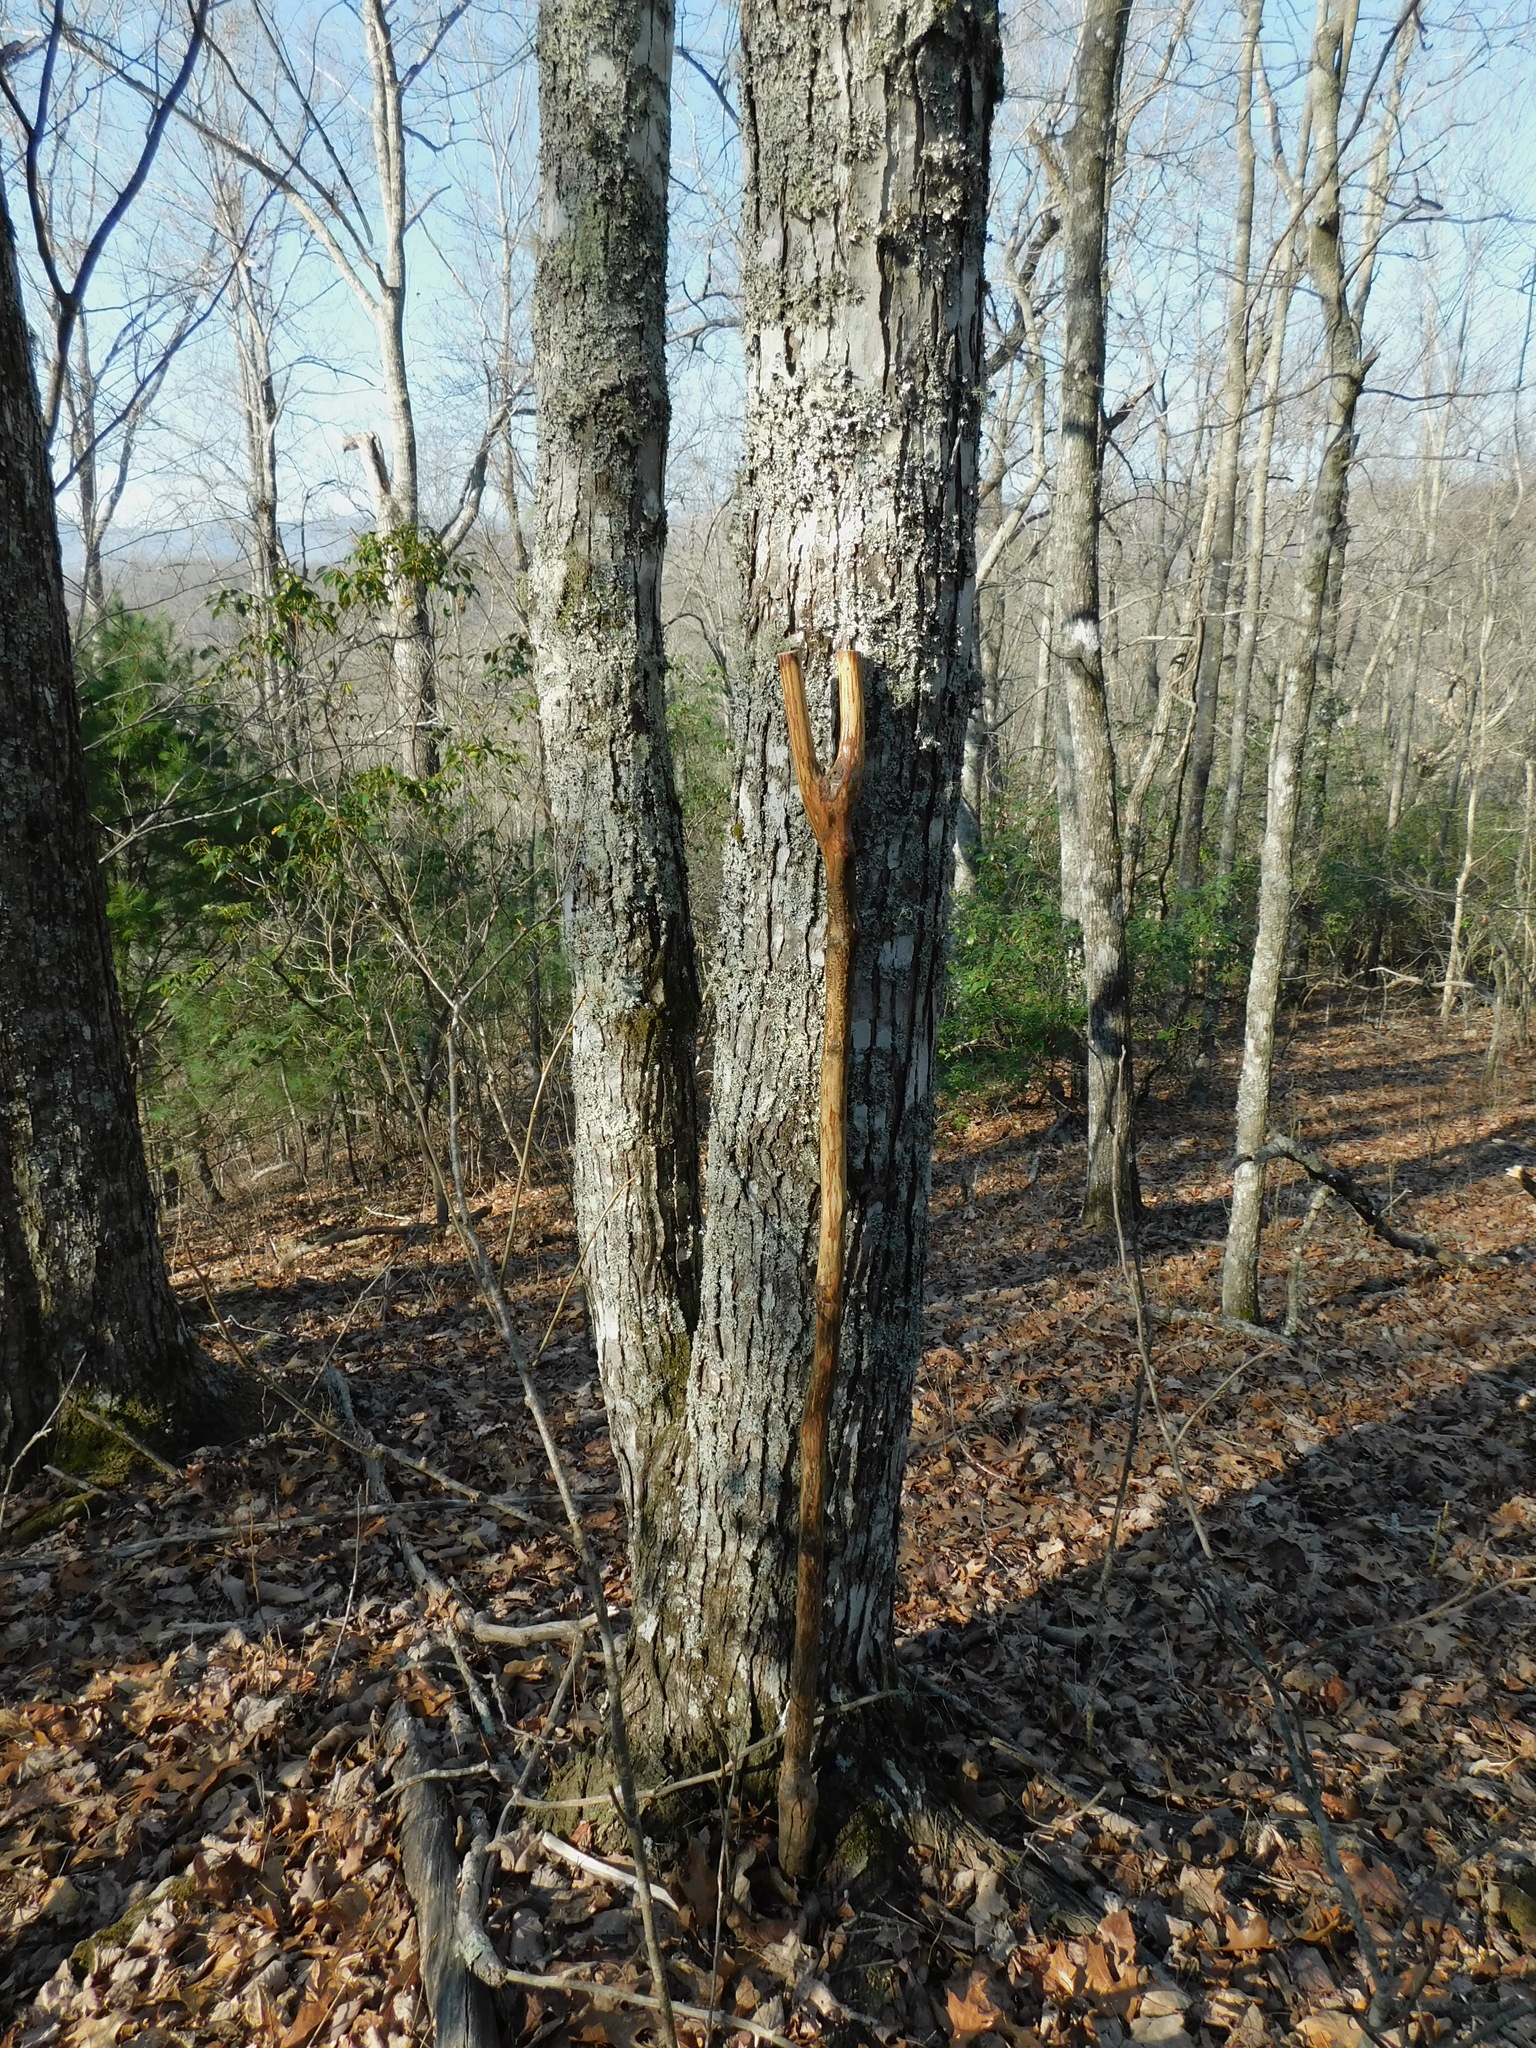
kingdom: Plantae
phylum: Tracheophyta
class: Magnoliopsida
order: Sapindales
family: Sapindaceae
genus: Acer
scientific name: Acer freemanii
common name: Freeman maple
